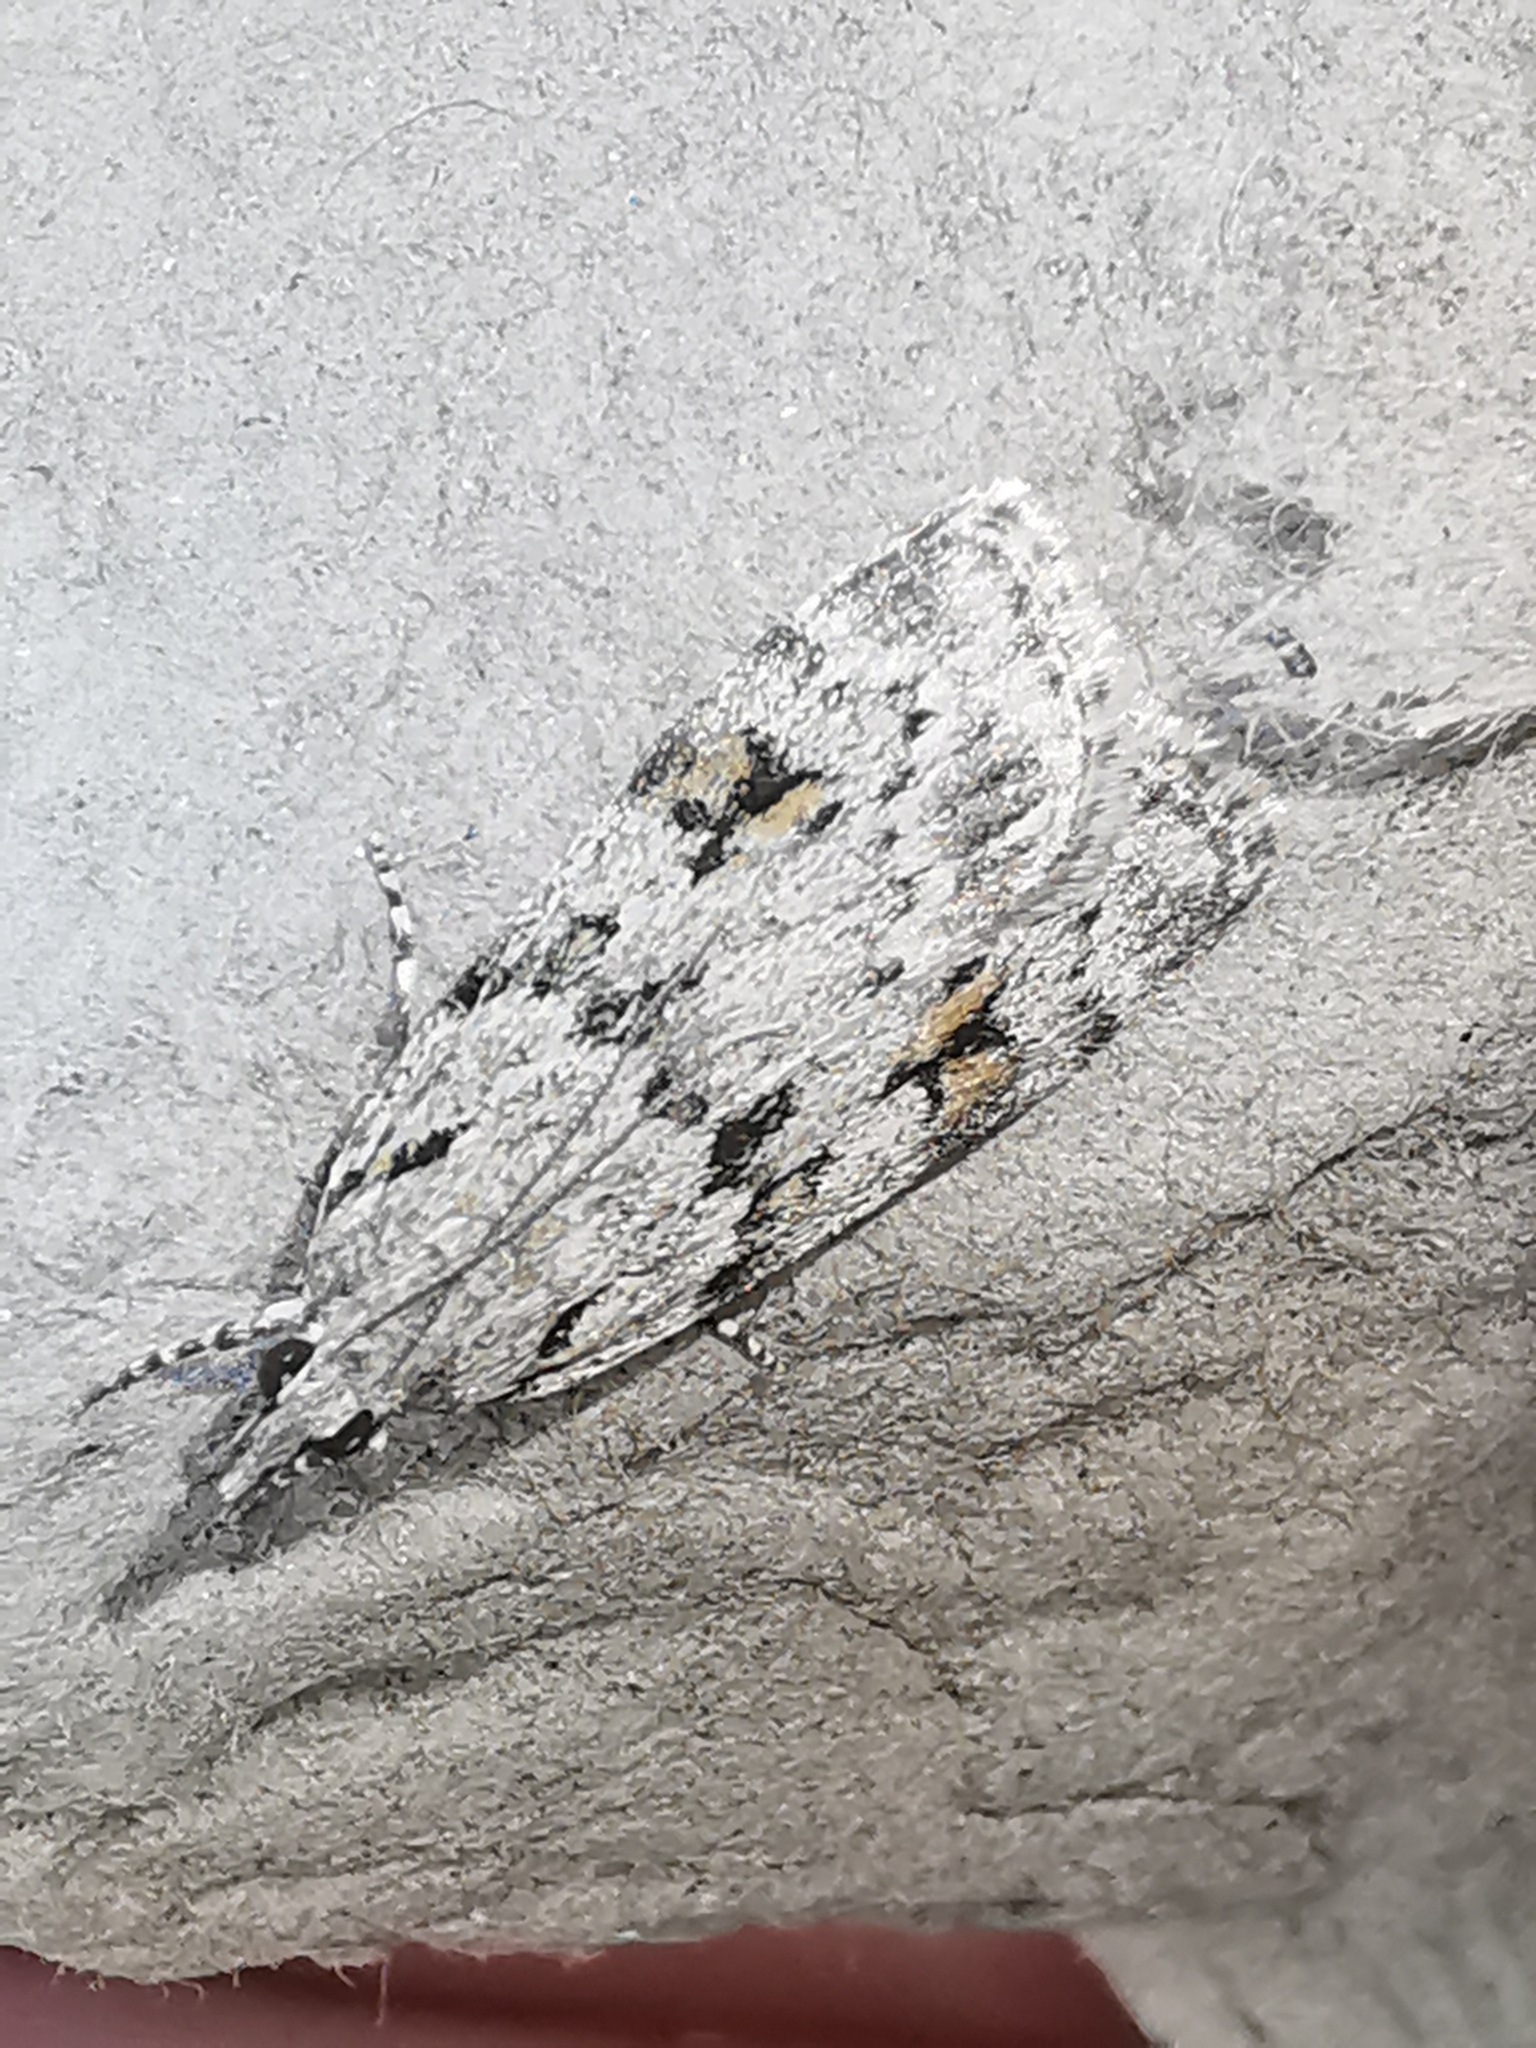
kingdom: Animalia
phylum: Arthropoda
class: Insecta
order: Lepidoptera
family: Crambidae
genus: Scoparia
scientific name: Scoparia pyralella
